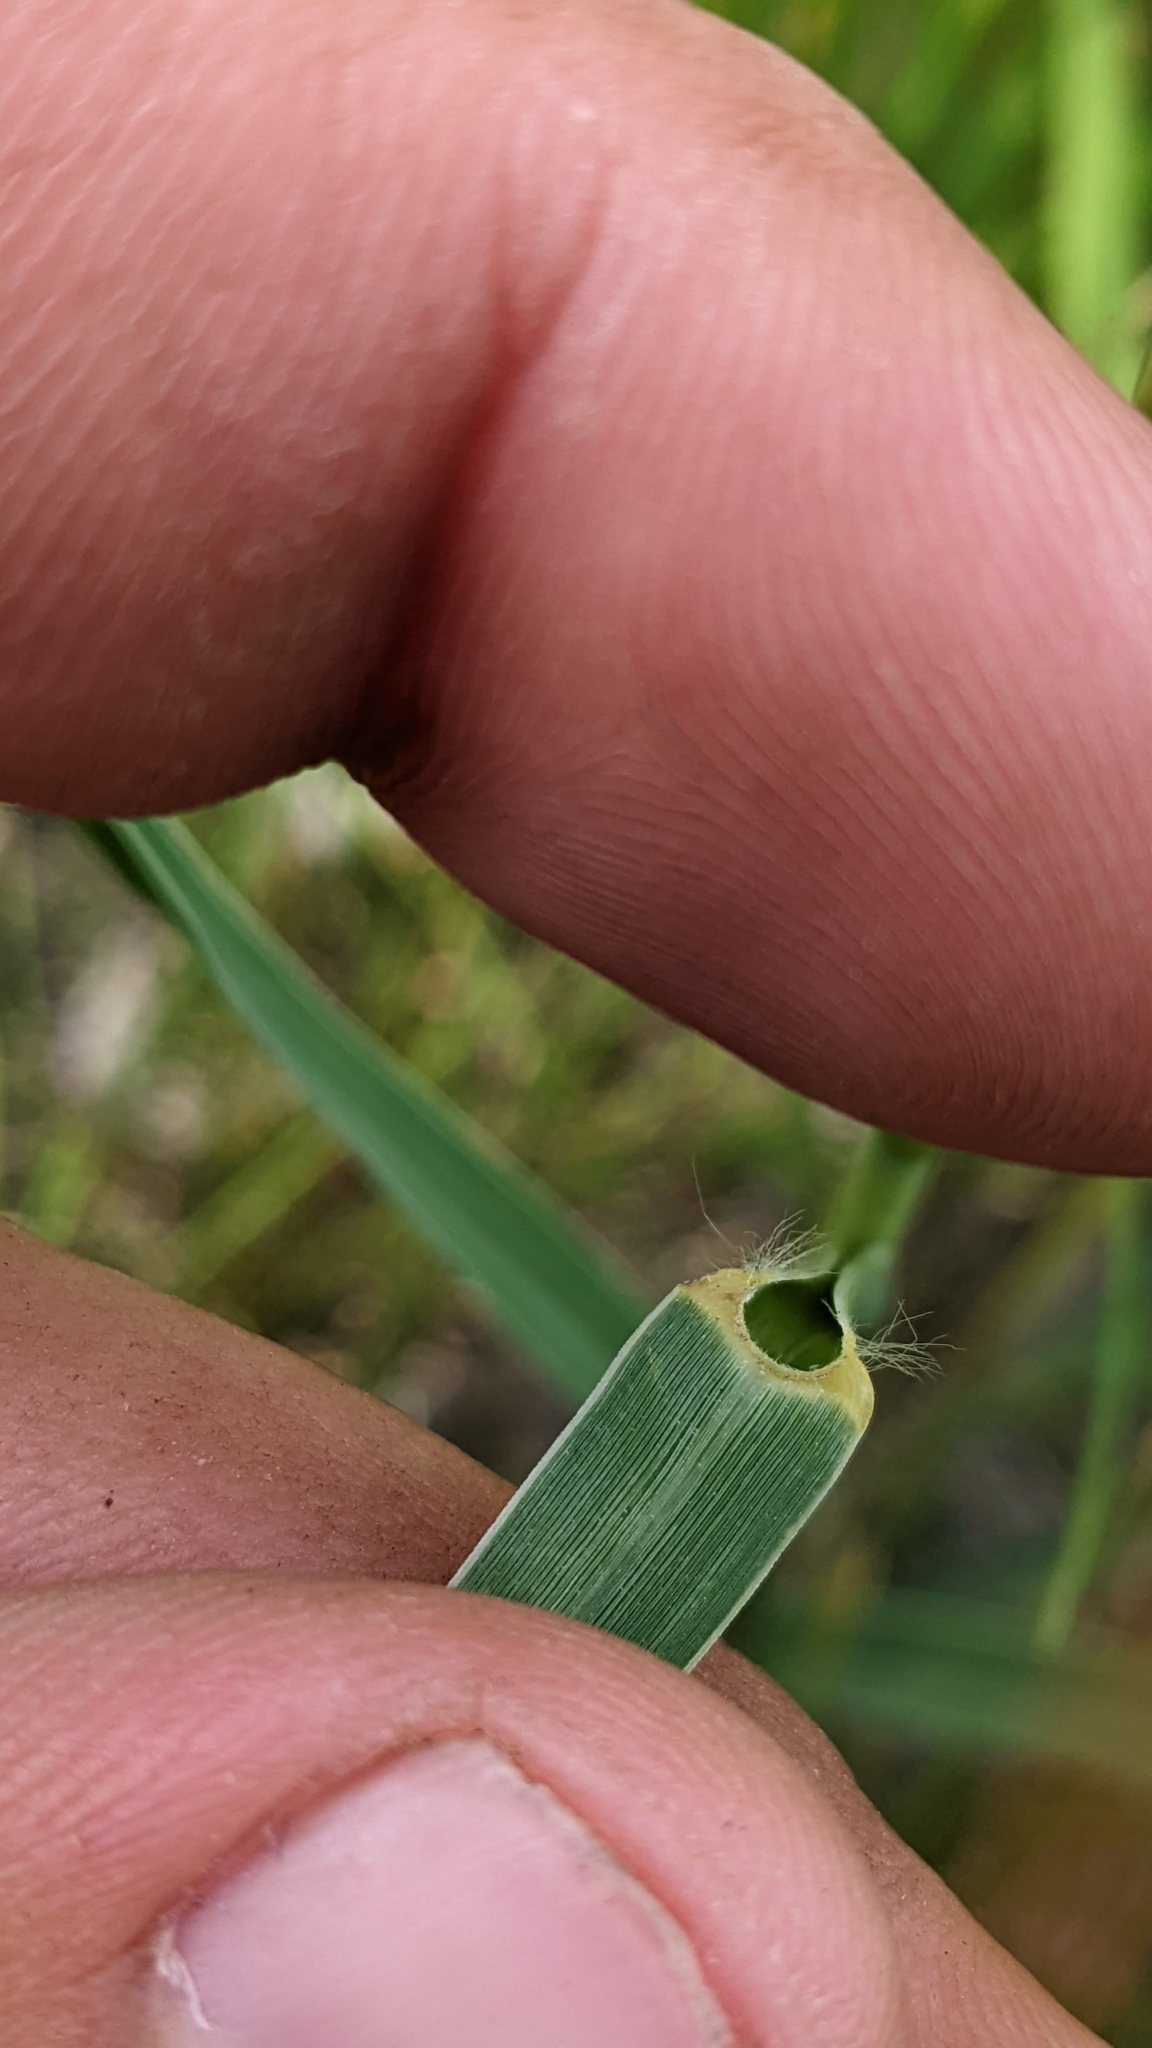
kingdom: Plantae
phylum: Tracheophyta
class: Liliopsida
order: Poales
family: Poaceae
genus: Sporobolus
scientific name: Sporobolus rigidus
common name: Prairie sandreed
